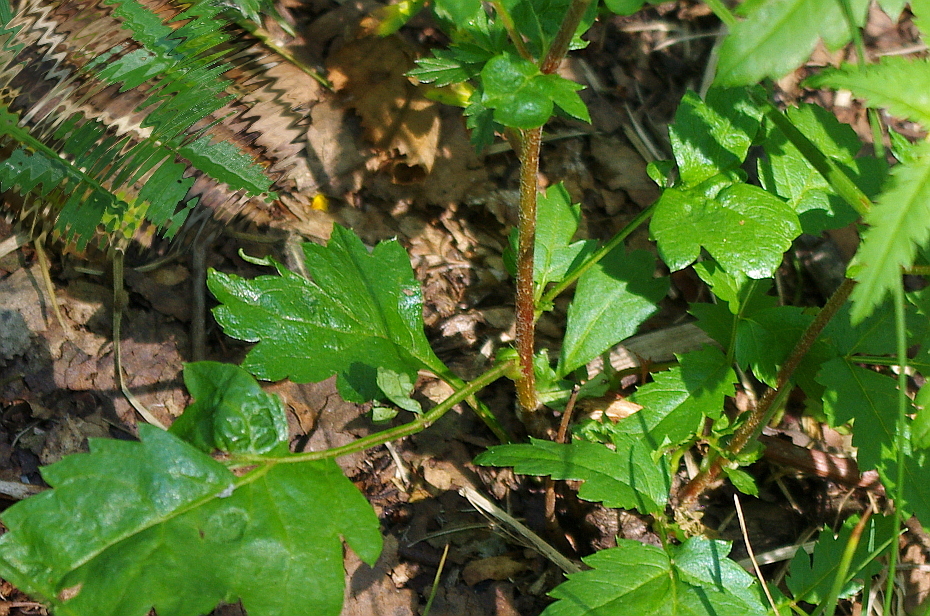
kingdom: Plantae
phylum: Tracheophyta
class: Magnoliopsida
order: Rosales
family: Rosaceae
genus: Sorbus
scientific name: Sorbus aucuparia
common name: Rowan
